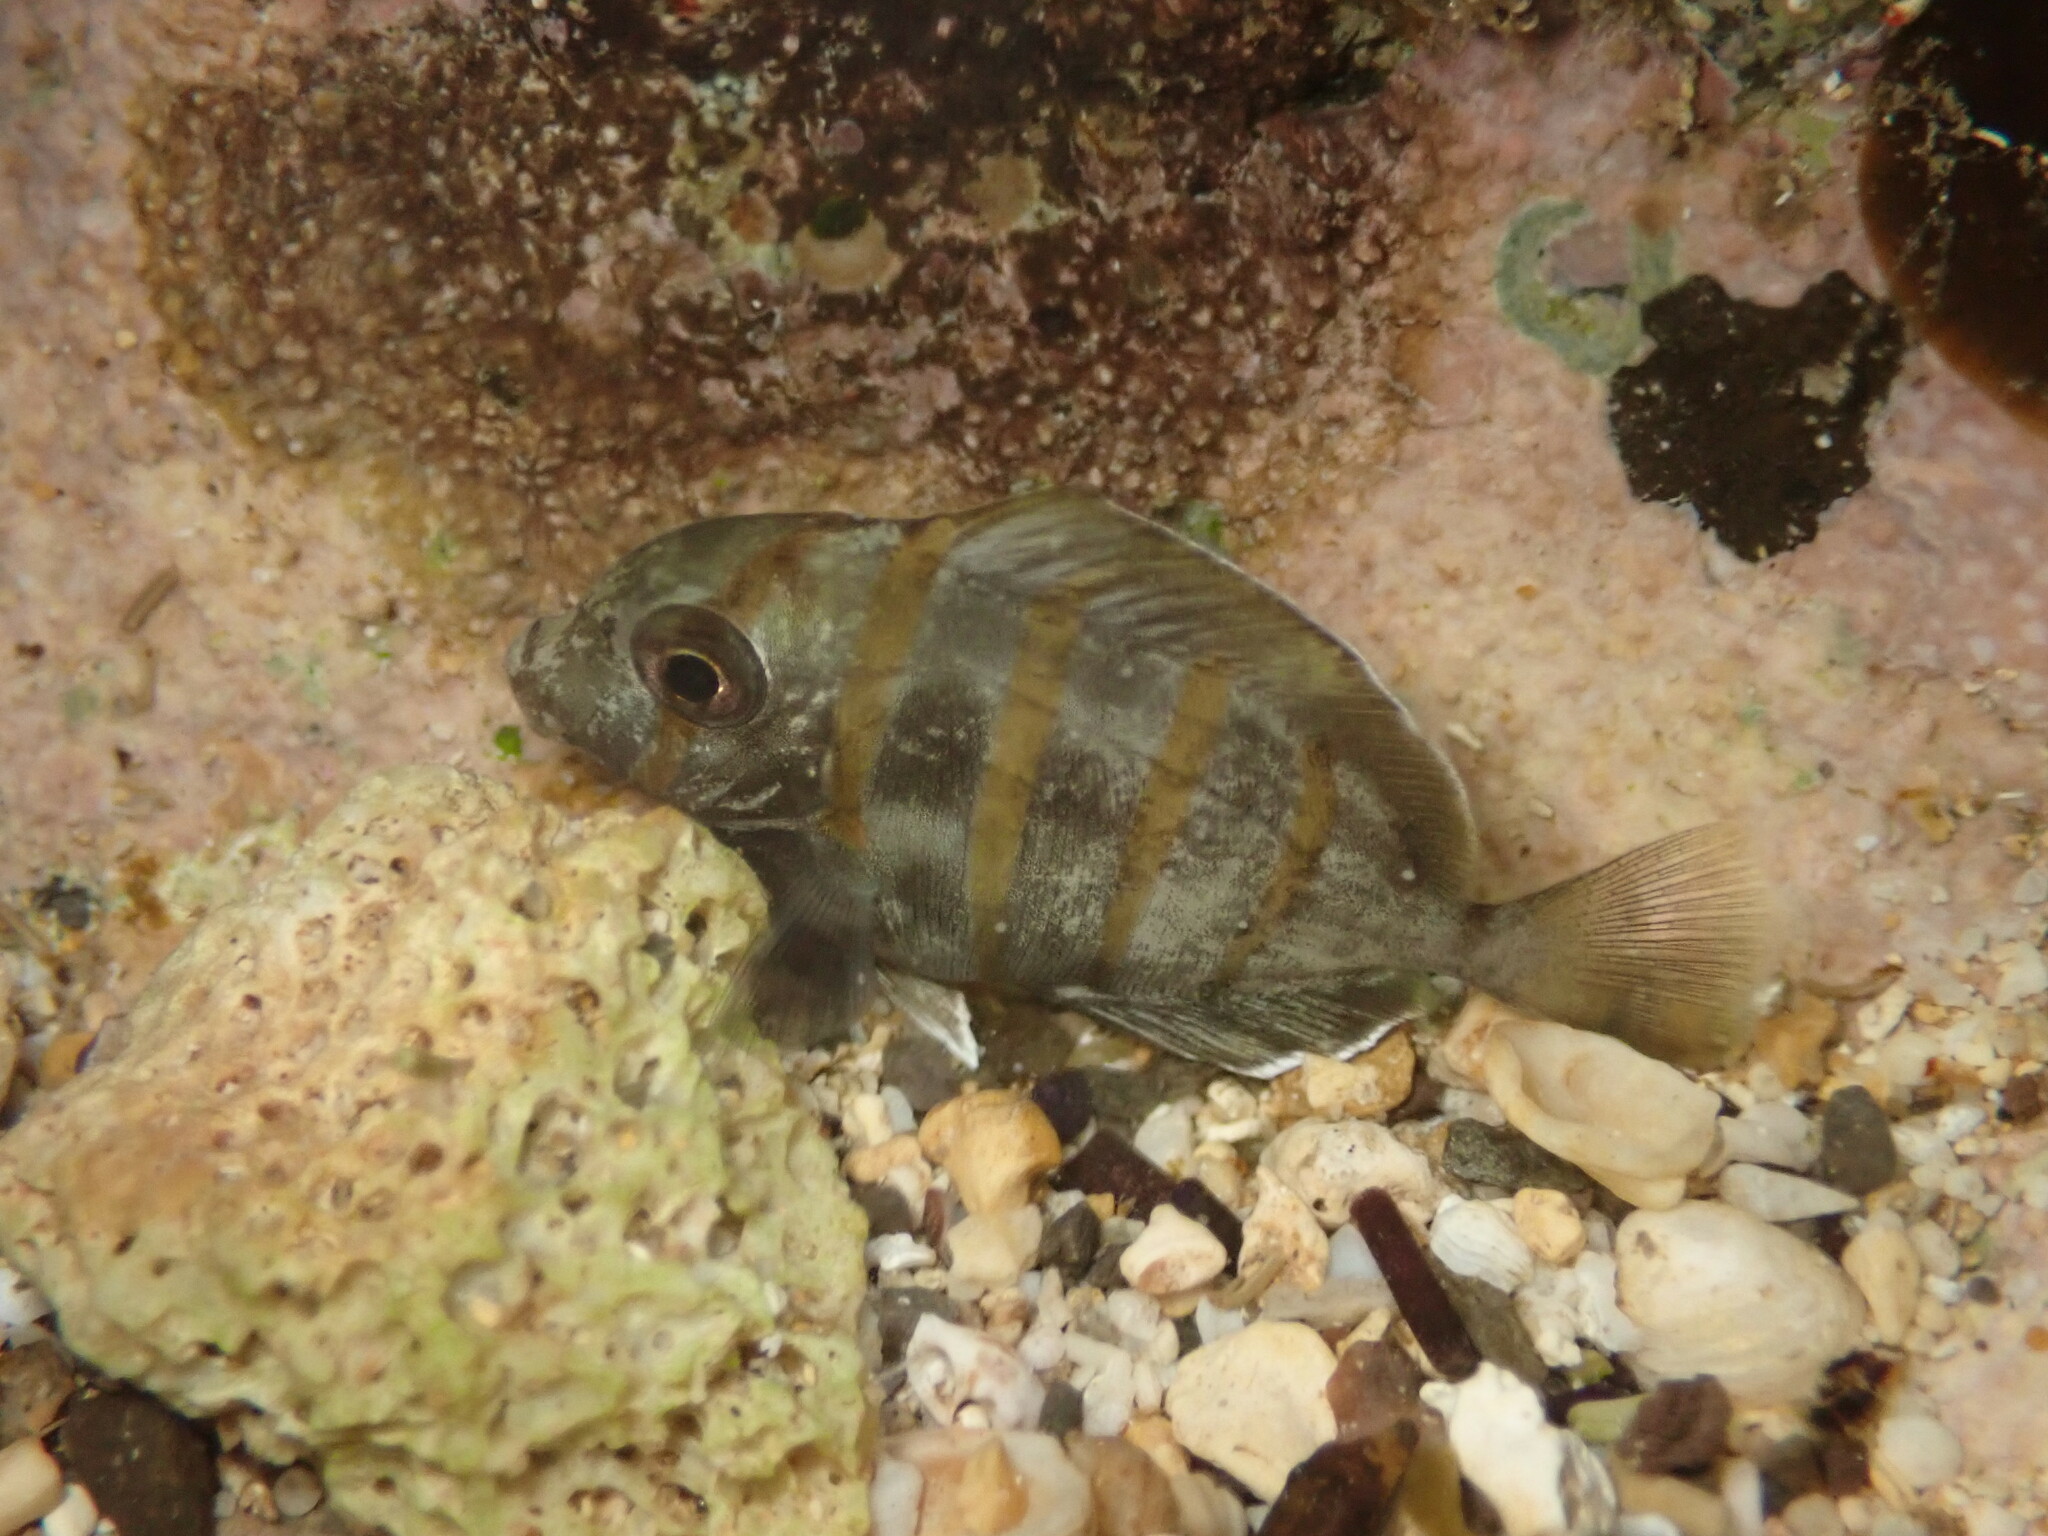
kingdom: Animalia
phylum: Chordata
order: Perciformes
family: Acanthuridae
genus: Acanthurus
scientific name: Acanthurus triostegus
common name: Convict surgeonfish
